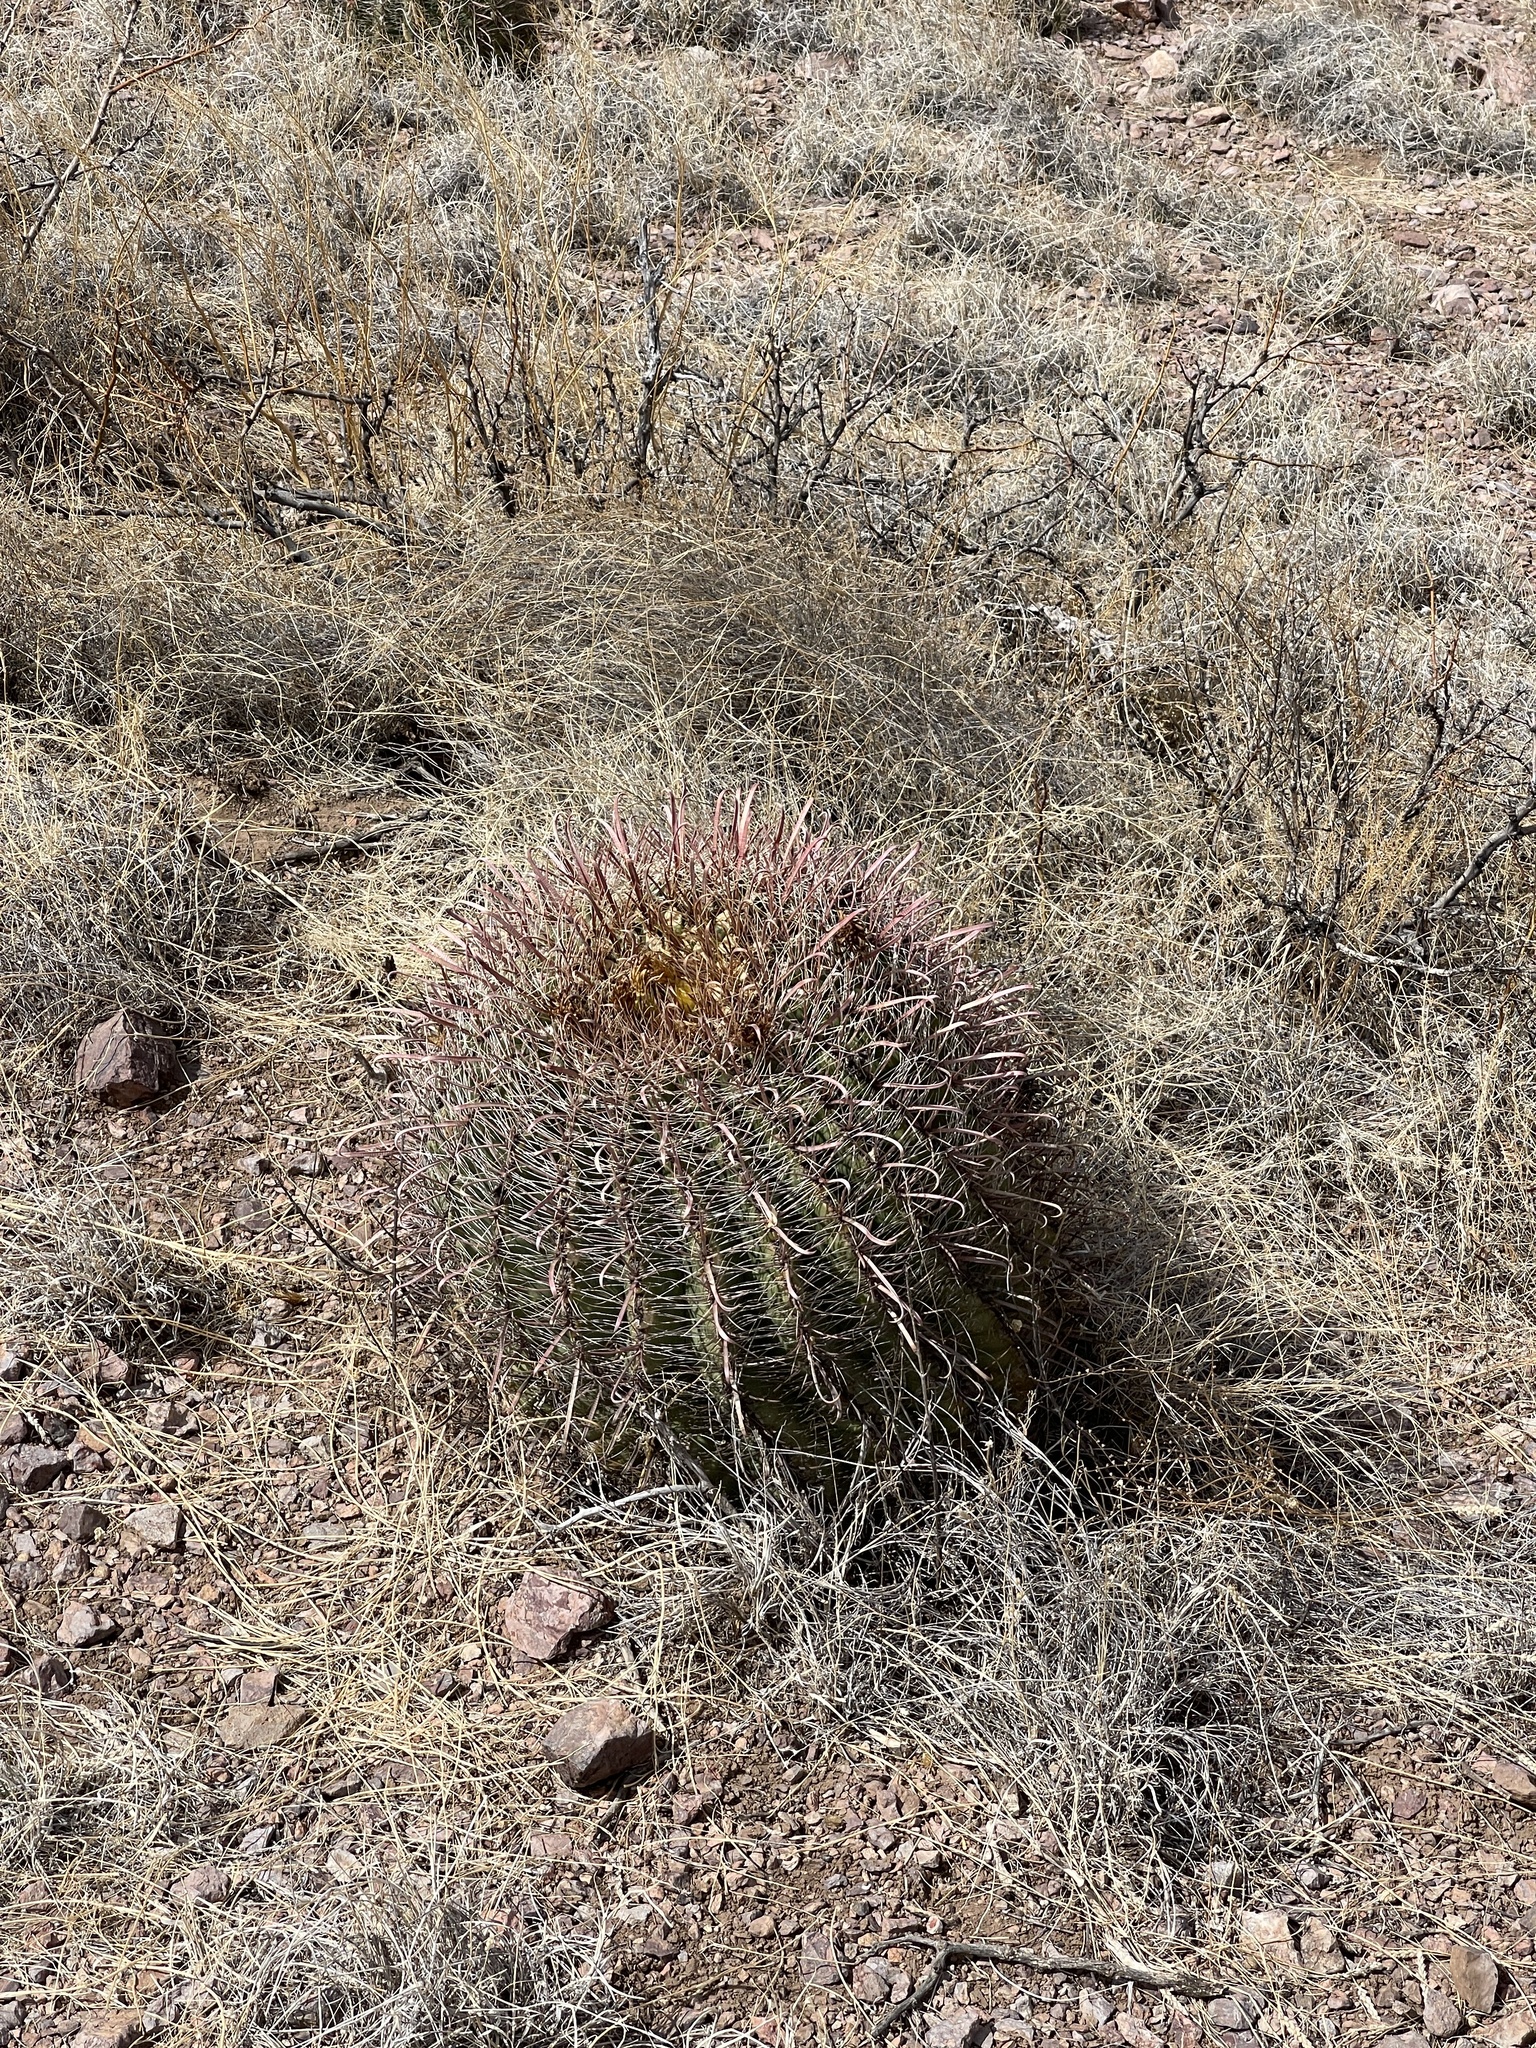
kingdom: Plantae
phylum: Tracheophyta
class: Magnoliopsida
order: Caryophyllales
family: Cactaceae
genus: Ferocactus
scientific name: Ferocactus wislizeni
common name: Candy barrel cactus
